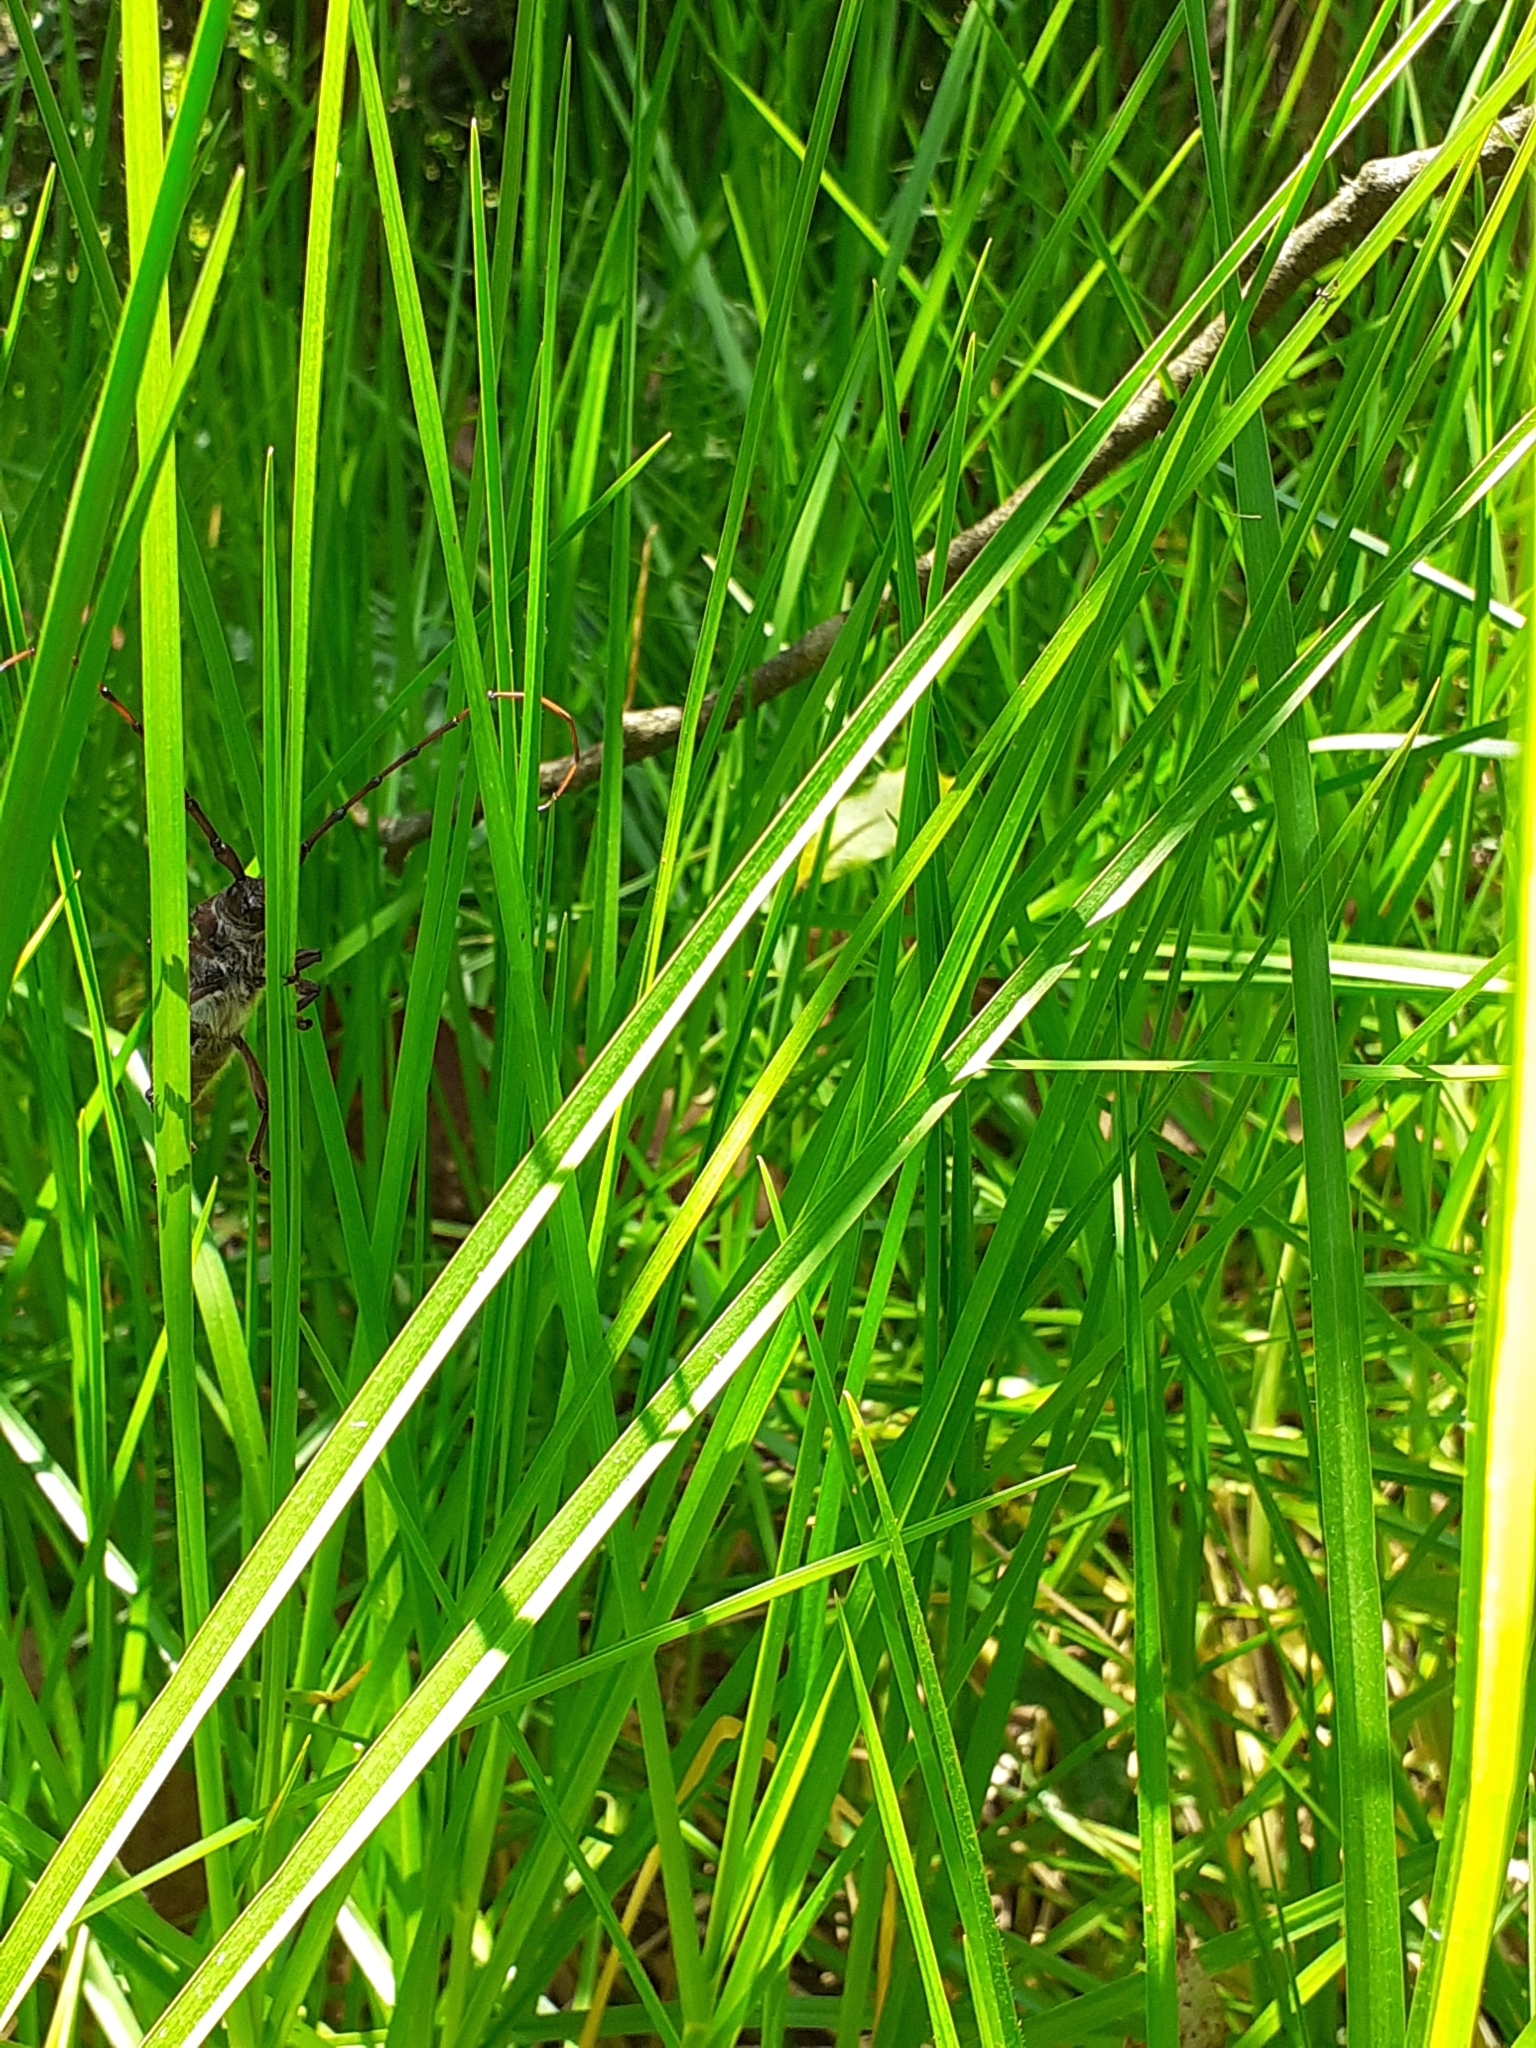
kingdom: Animalia
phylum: Arthropoda
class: Insecta
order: Coleoptera
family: Cerambycidae
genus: Deretrachys
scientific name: Deretrachys pellitus
